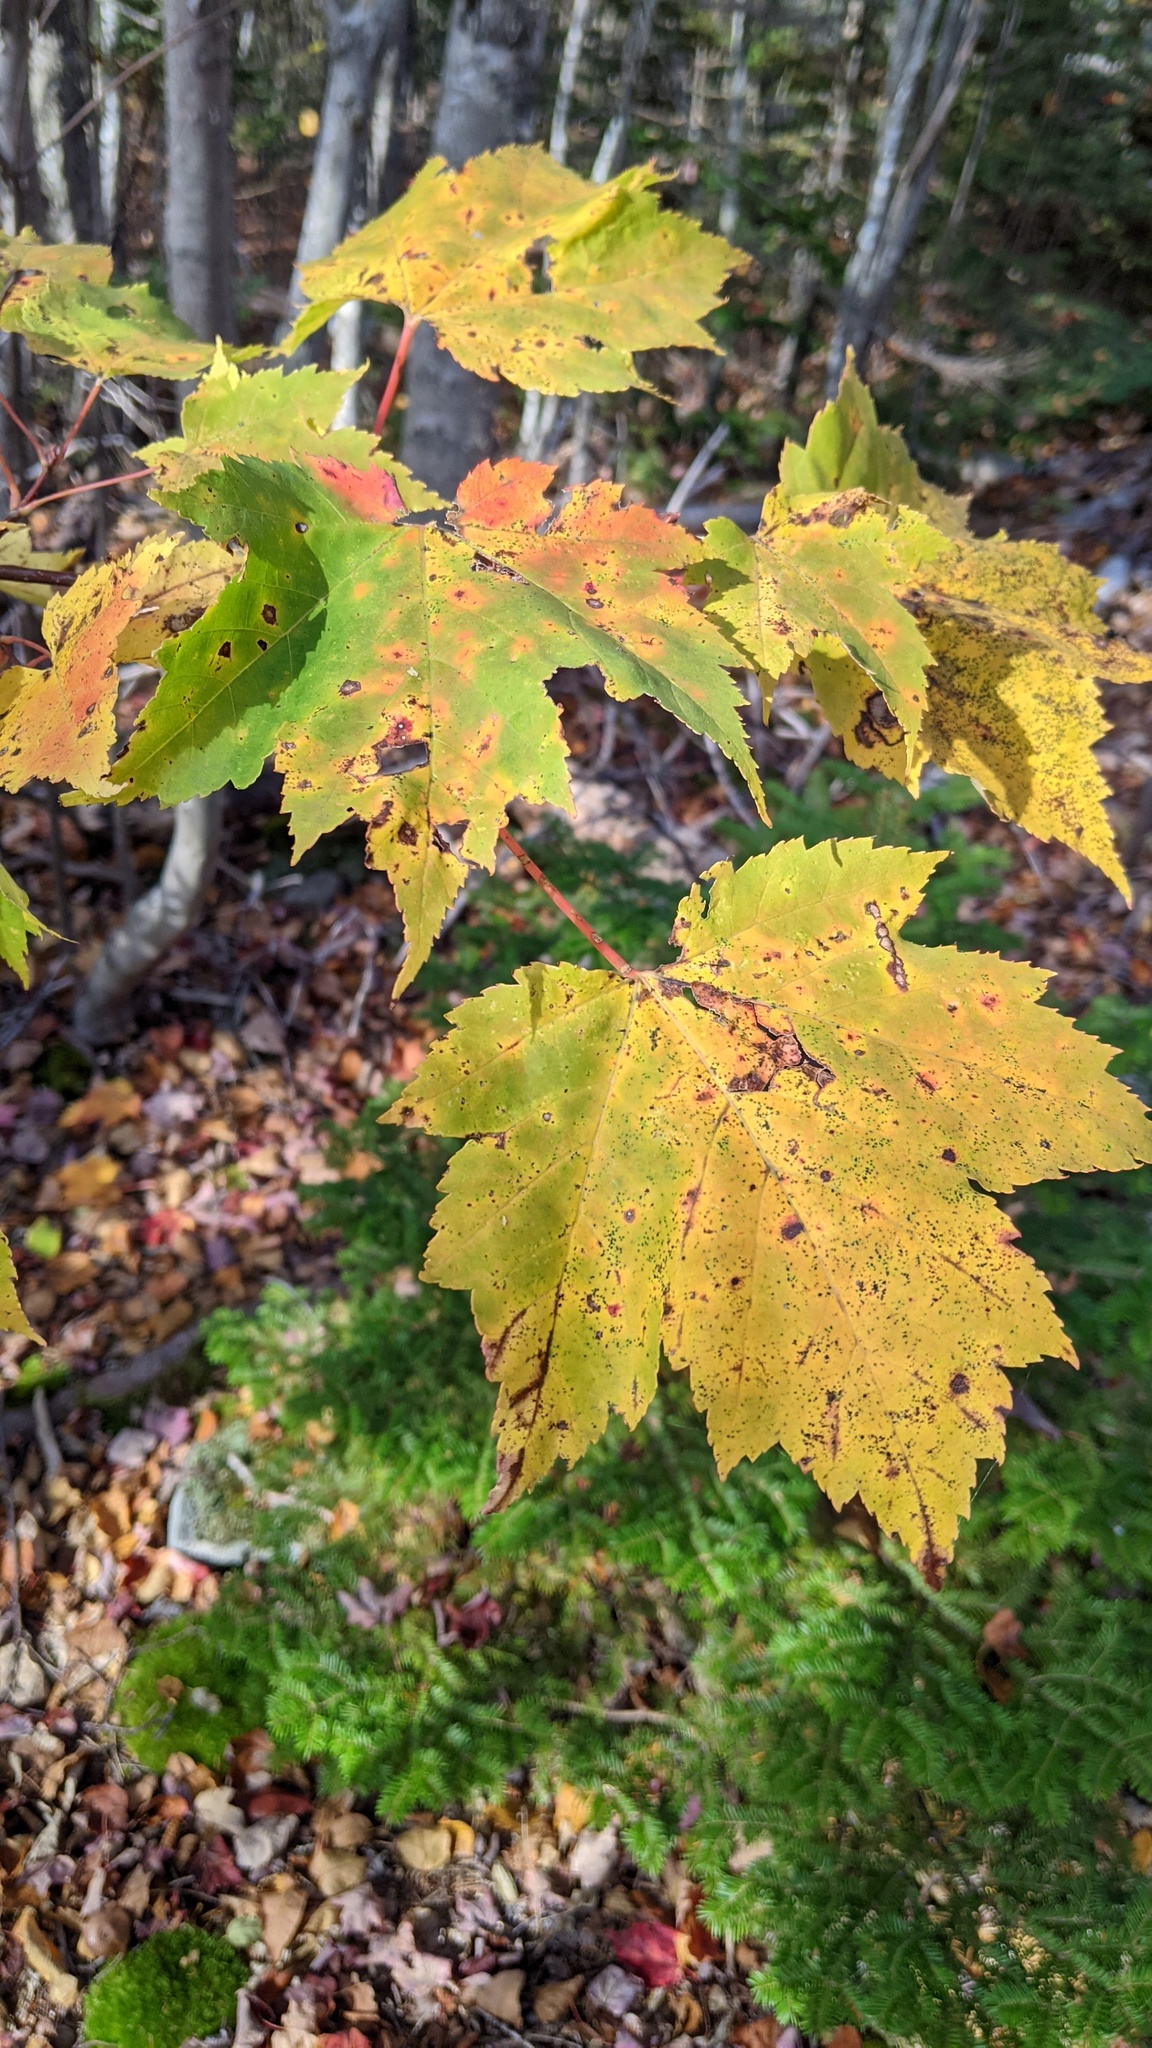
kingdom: Plantae
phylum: Tracheophyta
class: Magnoliopsida
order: Sapindales
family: Sapindaceae
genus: Acer
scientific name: Acer rubrum
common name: Red maple
